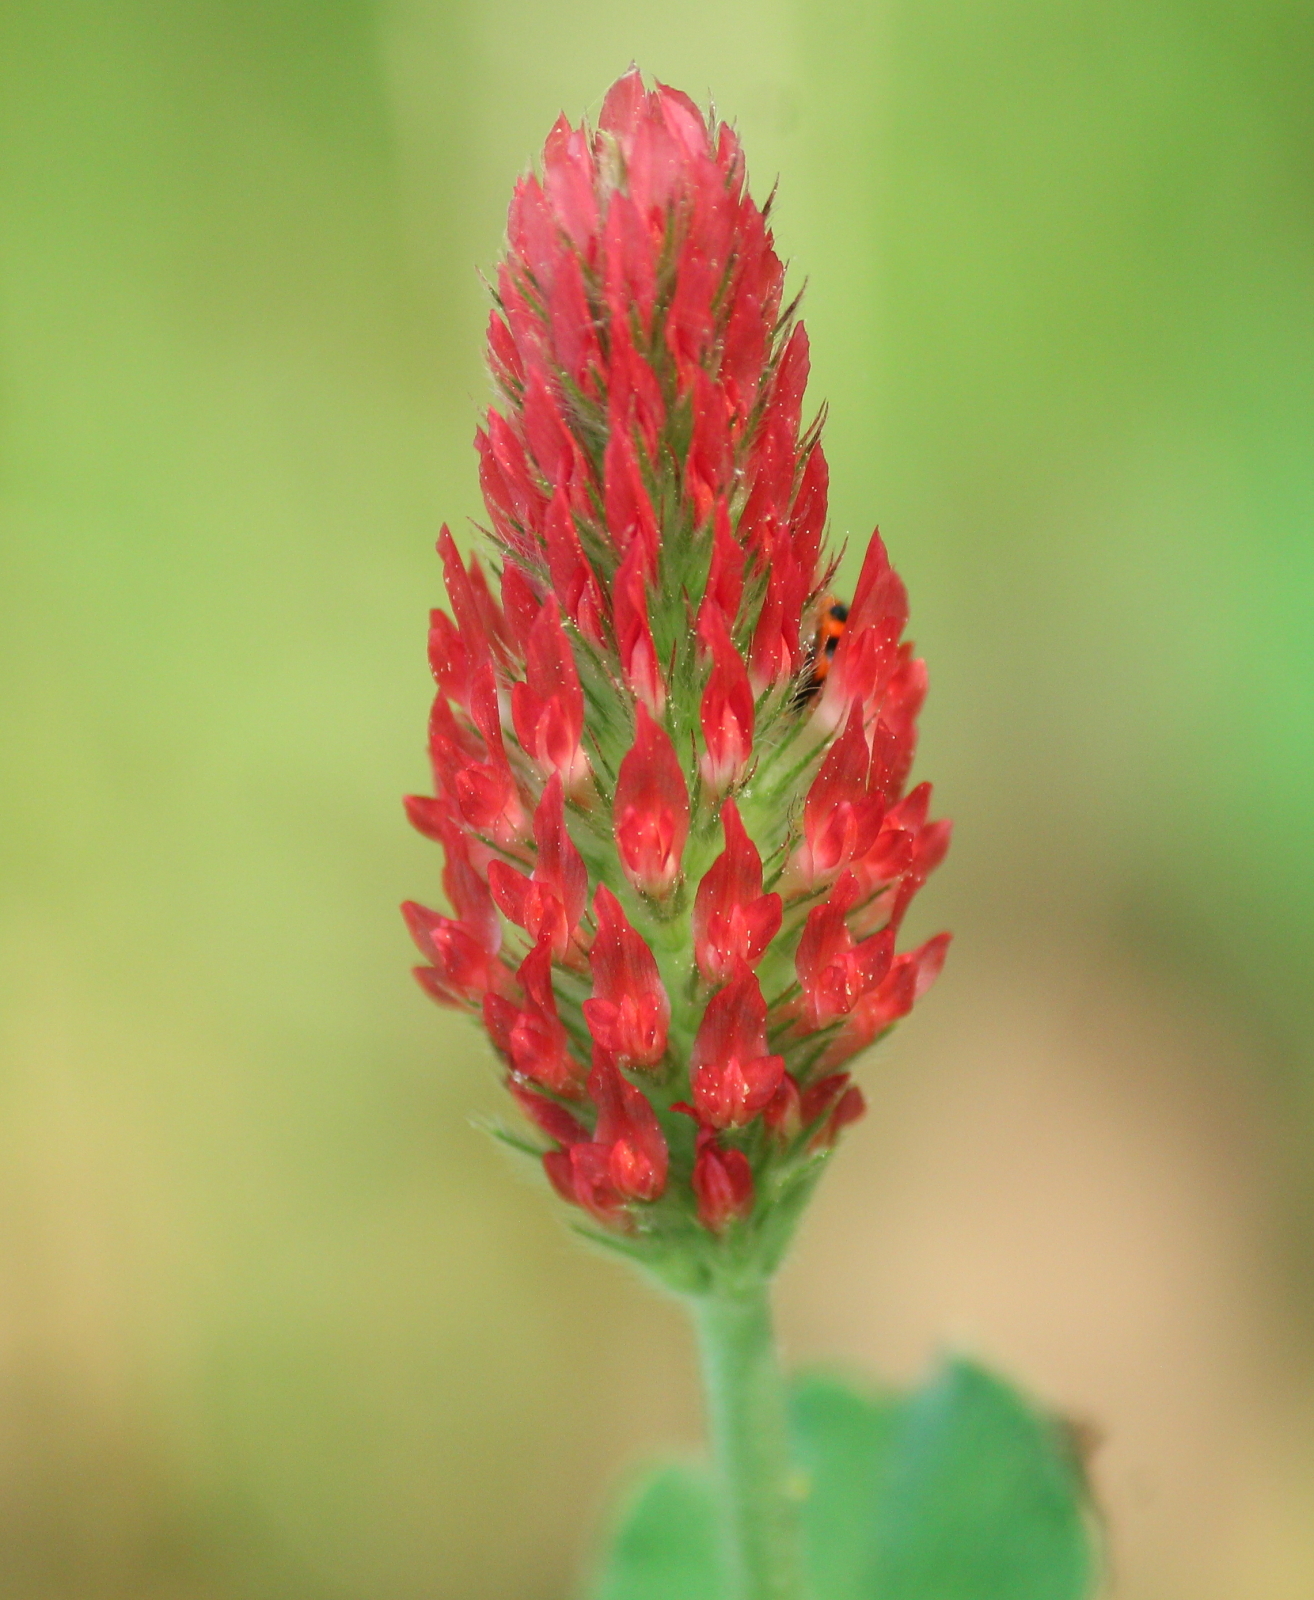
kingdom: Plantae
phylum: Tracheophyta
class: Magnoliopsida
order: Fabales
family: Fabaceae
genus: Trifolium
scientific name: Trifolium incarnatum
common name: Crimson clover
